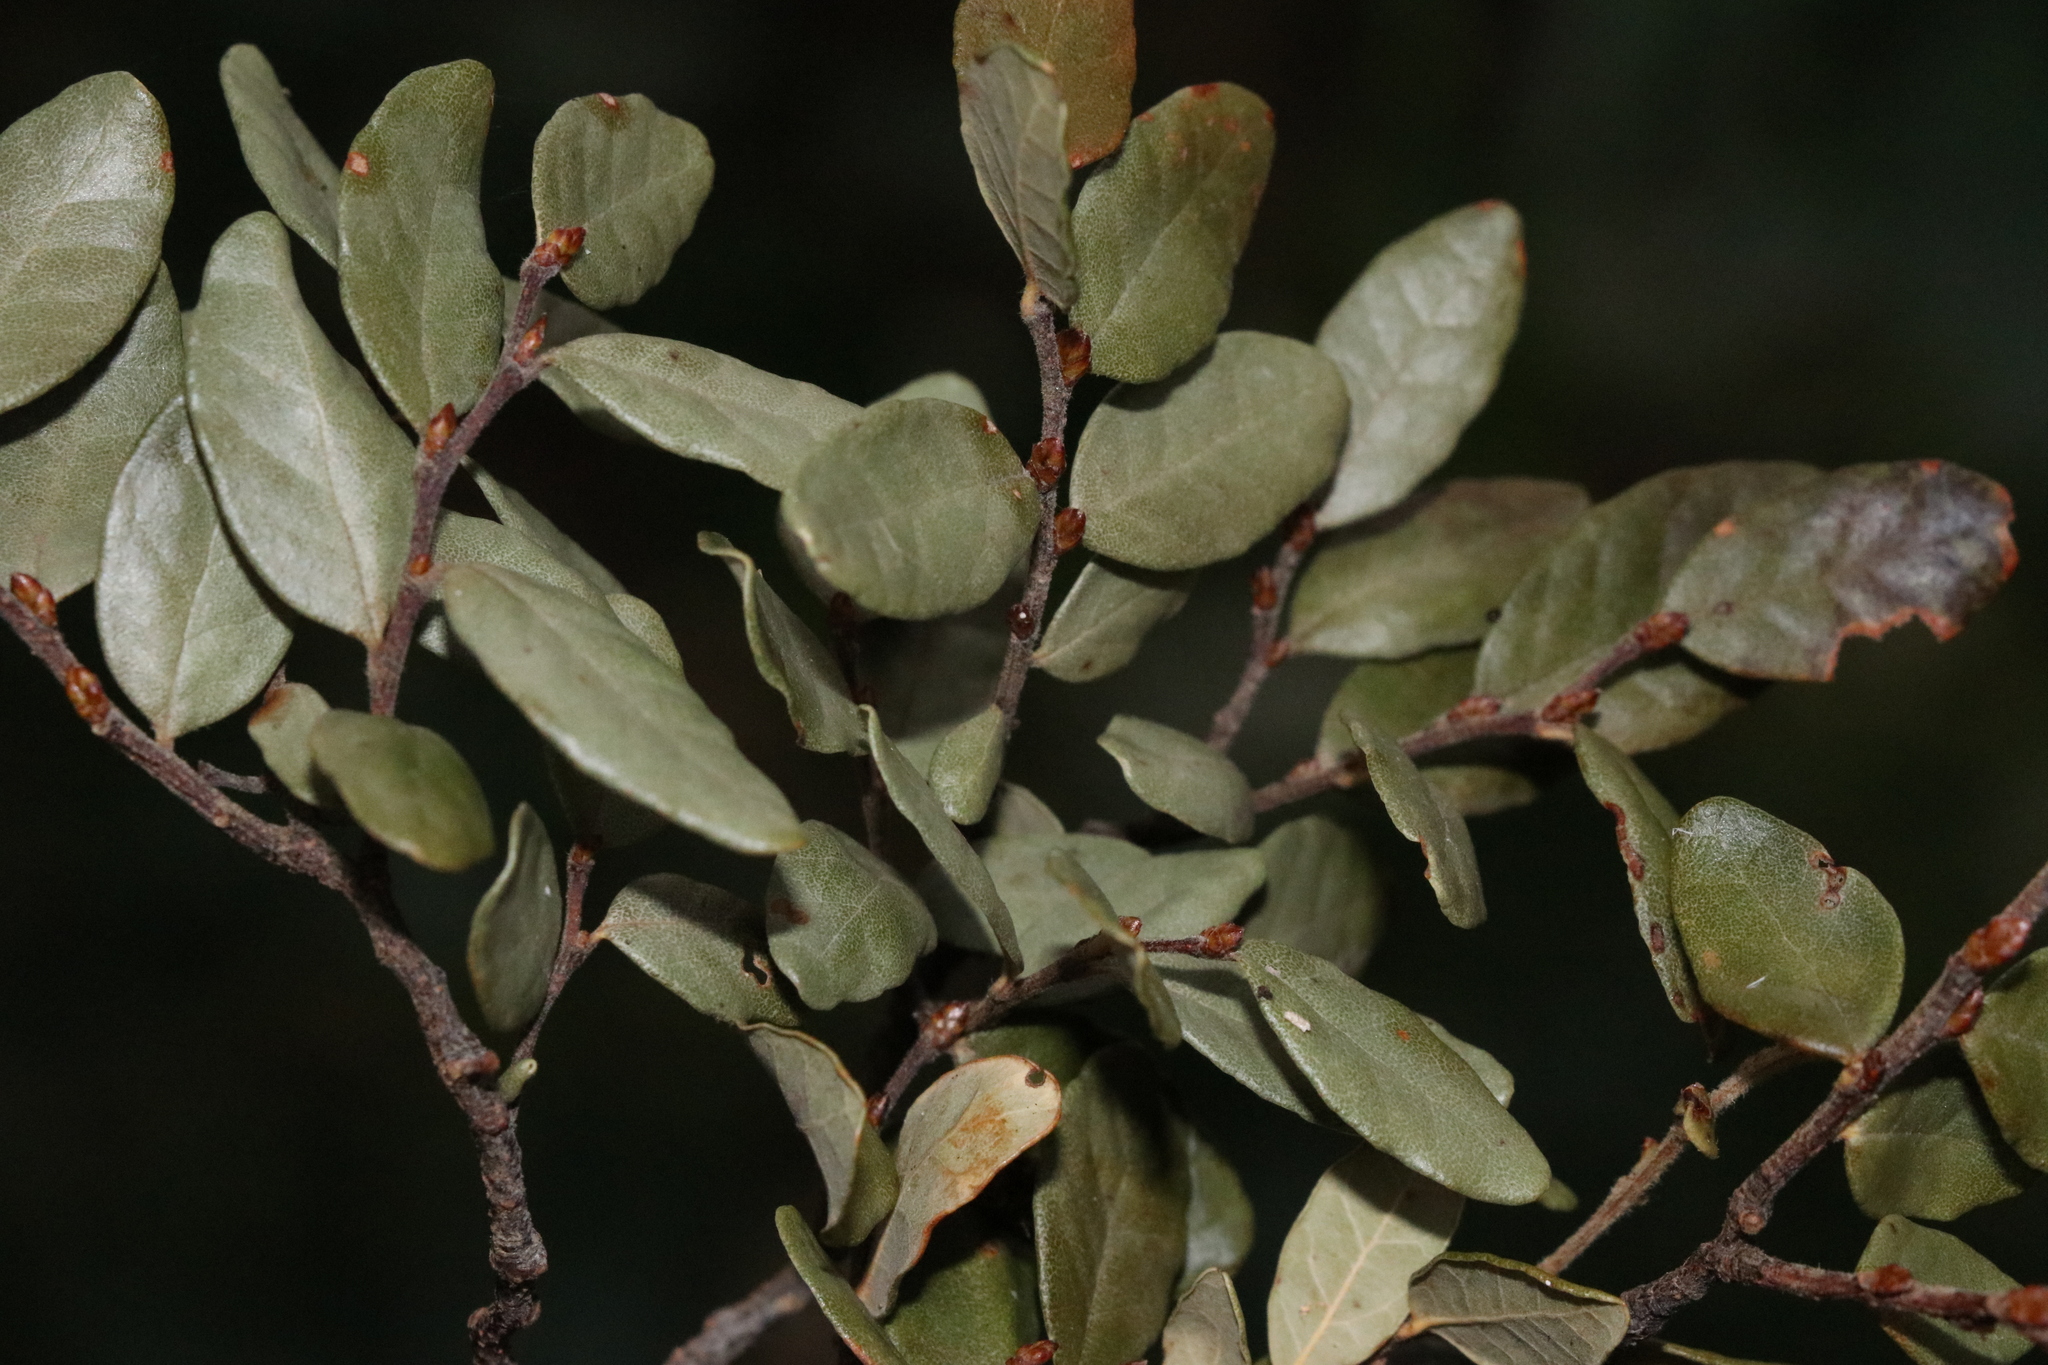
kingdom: Plantae
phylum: Tracheophyta
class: Magnoliopsida
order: Malvales
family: Malvaceae
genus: Hoheria
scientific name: Hoheria populnea
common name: Lacebark
